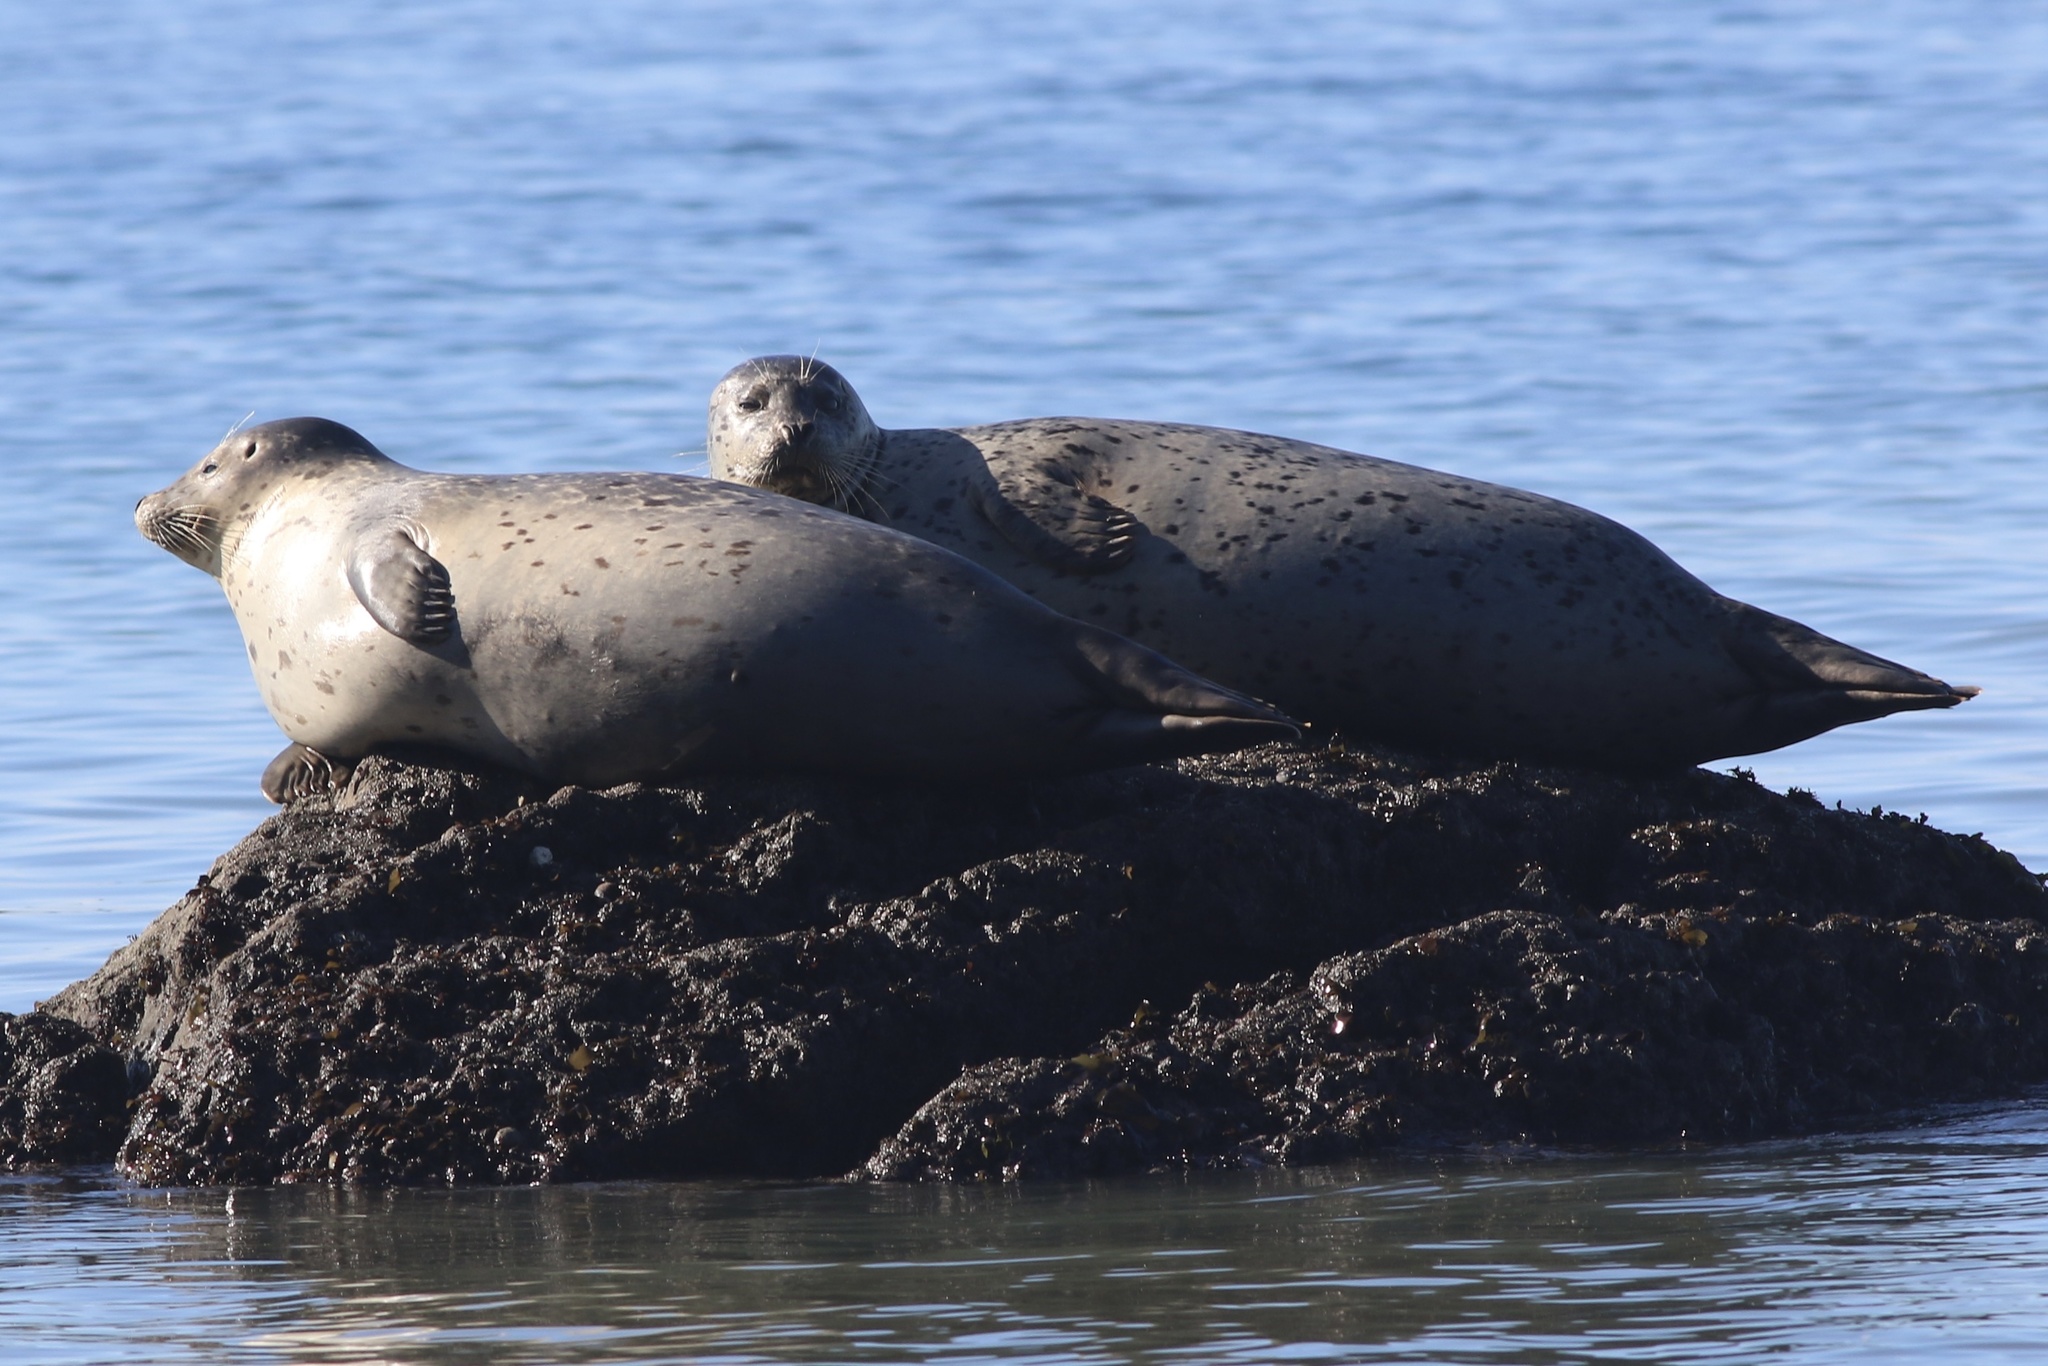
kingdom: Animalia
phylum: Chordata
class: Mammalia
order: Carnivora
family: Phocidae
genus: Phoca
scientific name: Phoca vitulina
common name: Harbor seal
